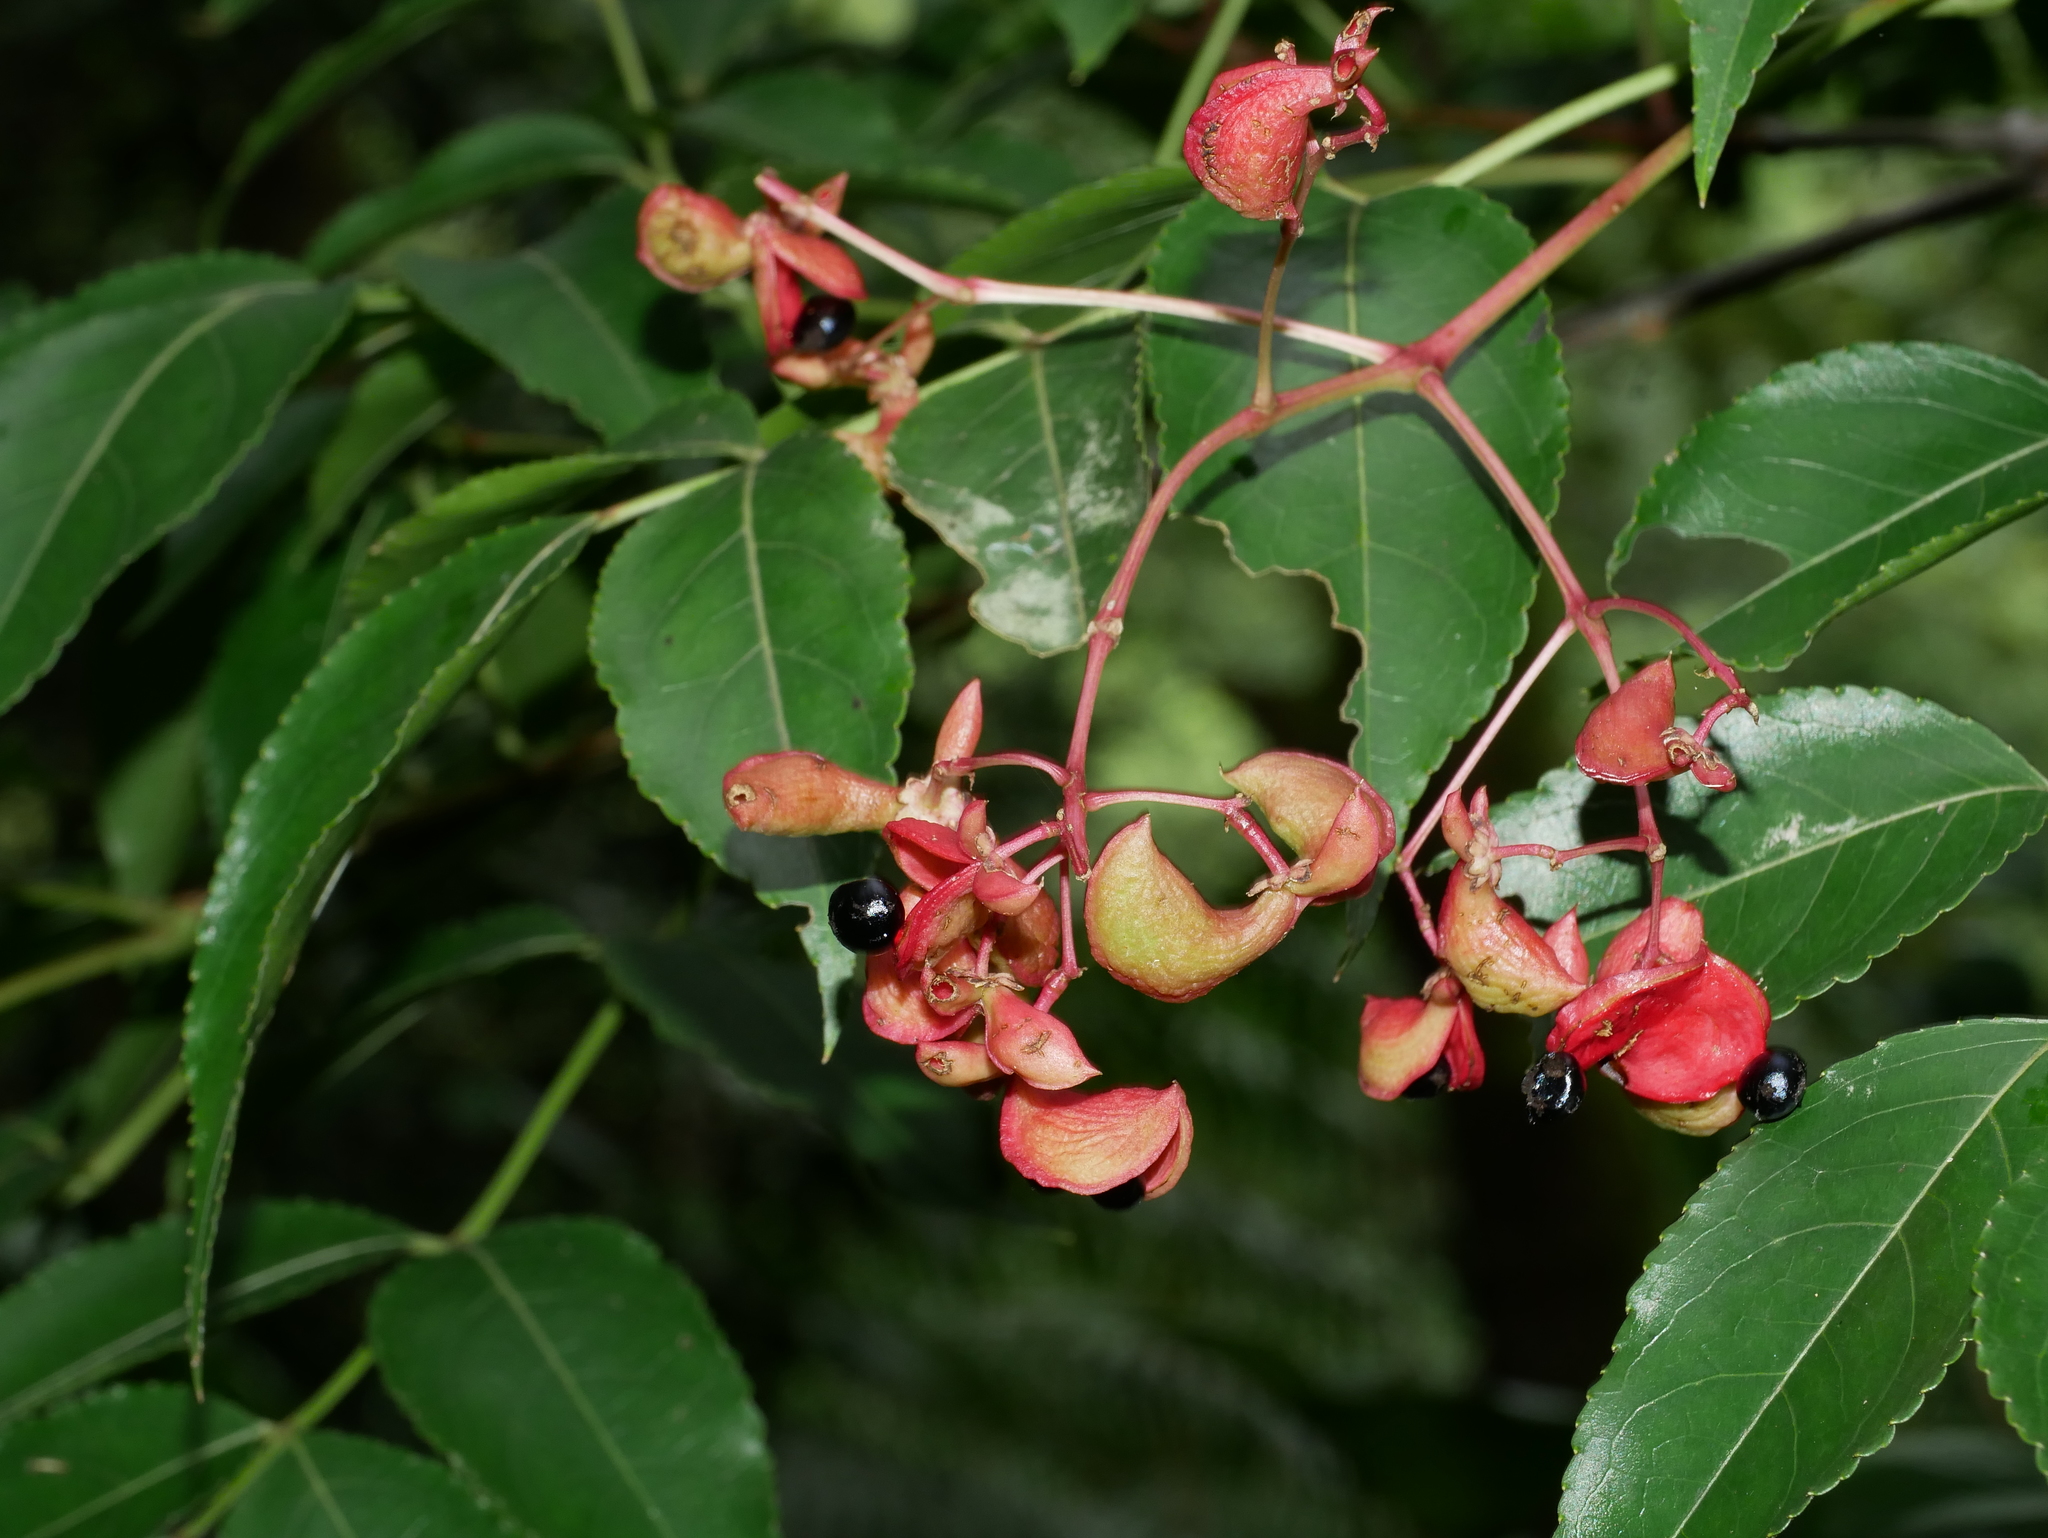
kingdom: Plantae
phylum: Tracheophyta
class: Magnoliopsida
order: Crossosomatales
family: Staphyleaceae
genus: Staphylea
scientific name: Staphylea japonica
